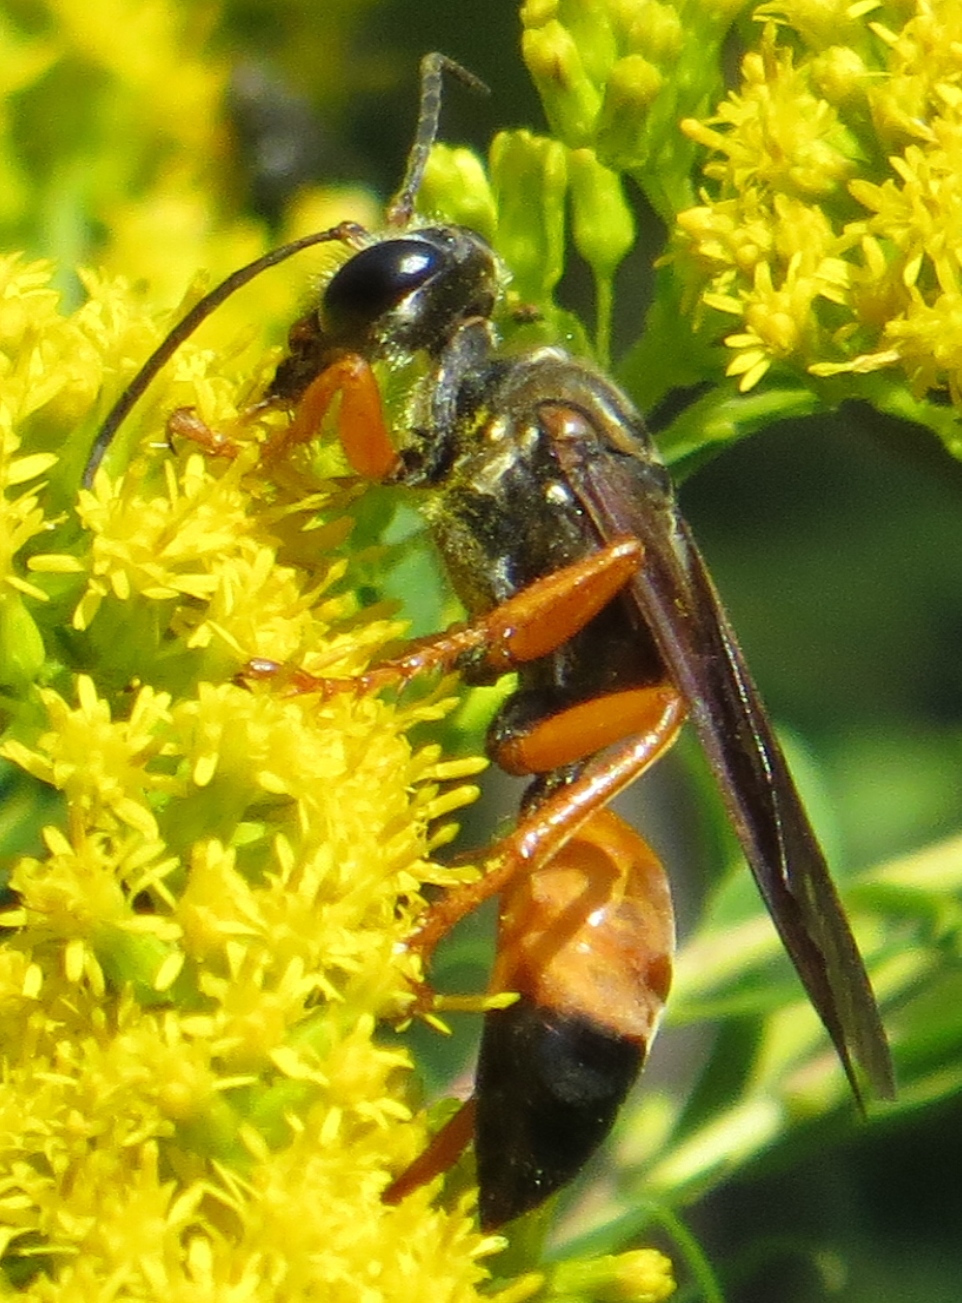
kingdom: Animalia
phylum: Arthropoda
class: Insecta
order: Hymenoptera
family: Sphecidae
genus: Sphex
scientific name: Sphex ichneumoneus
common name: Great golden digger wasp
